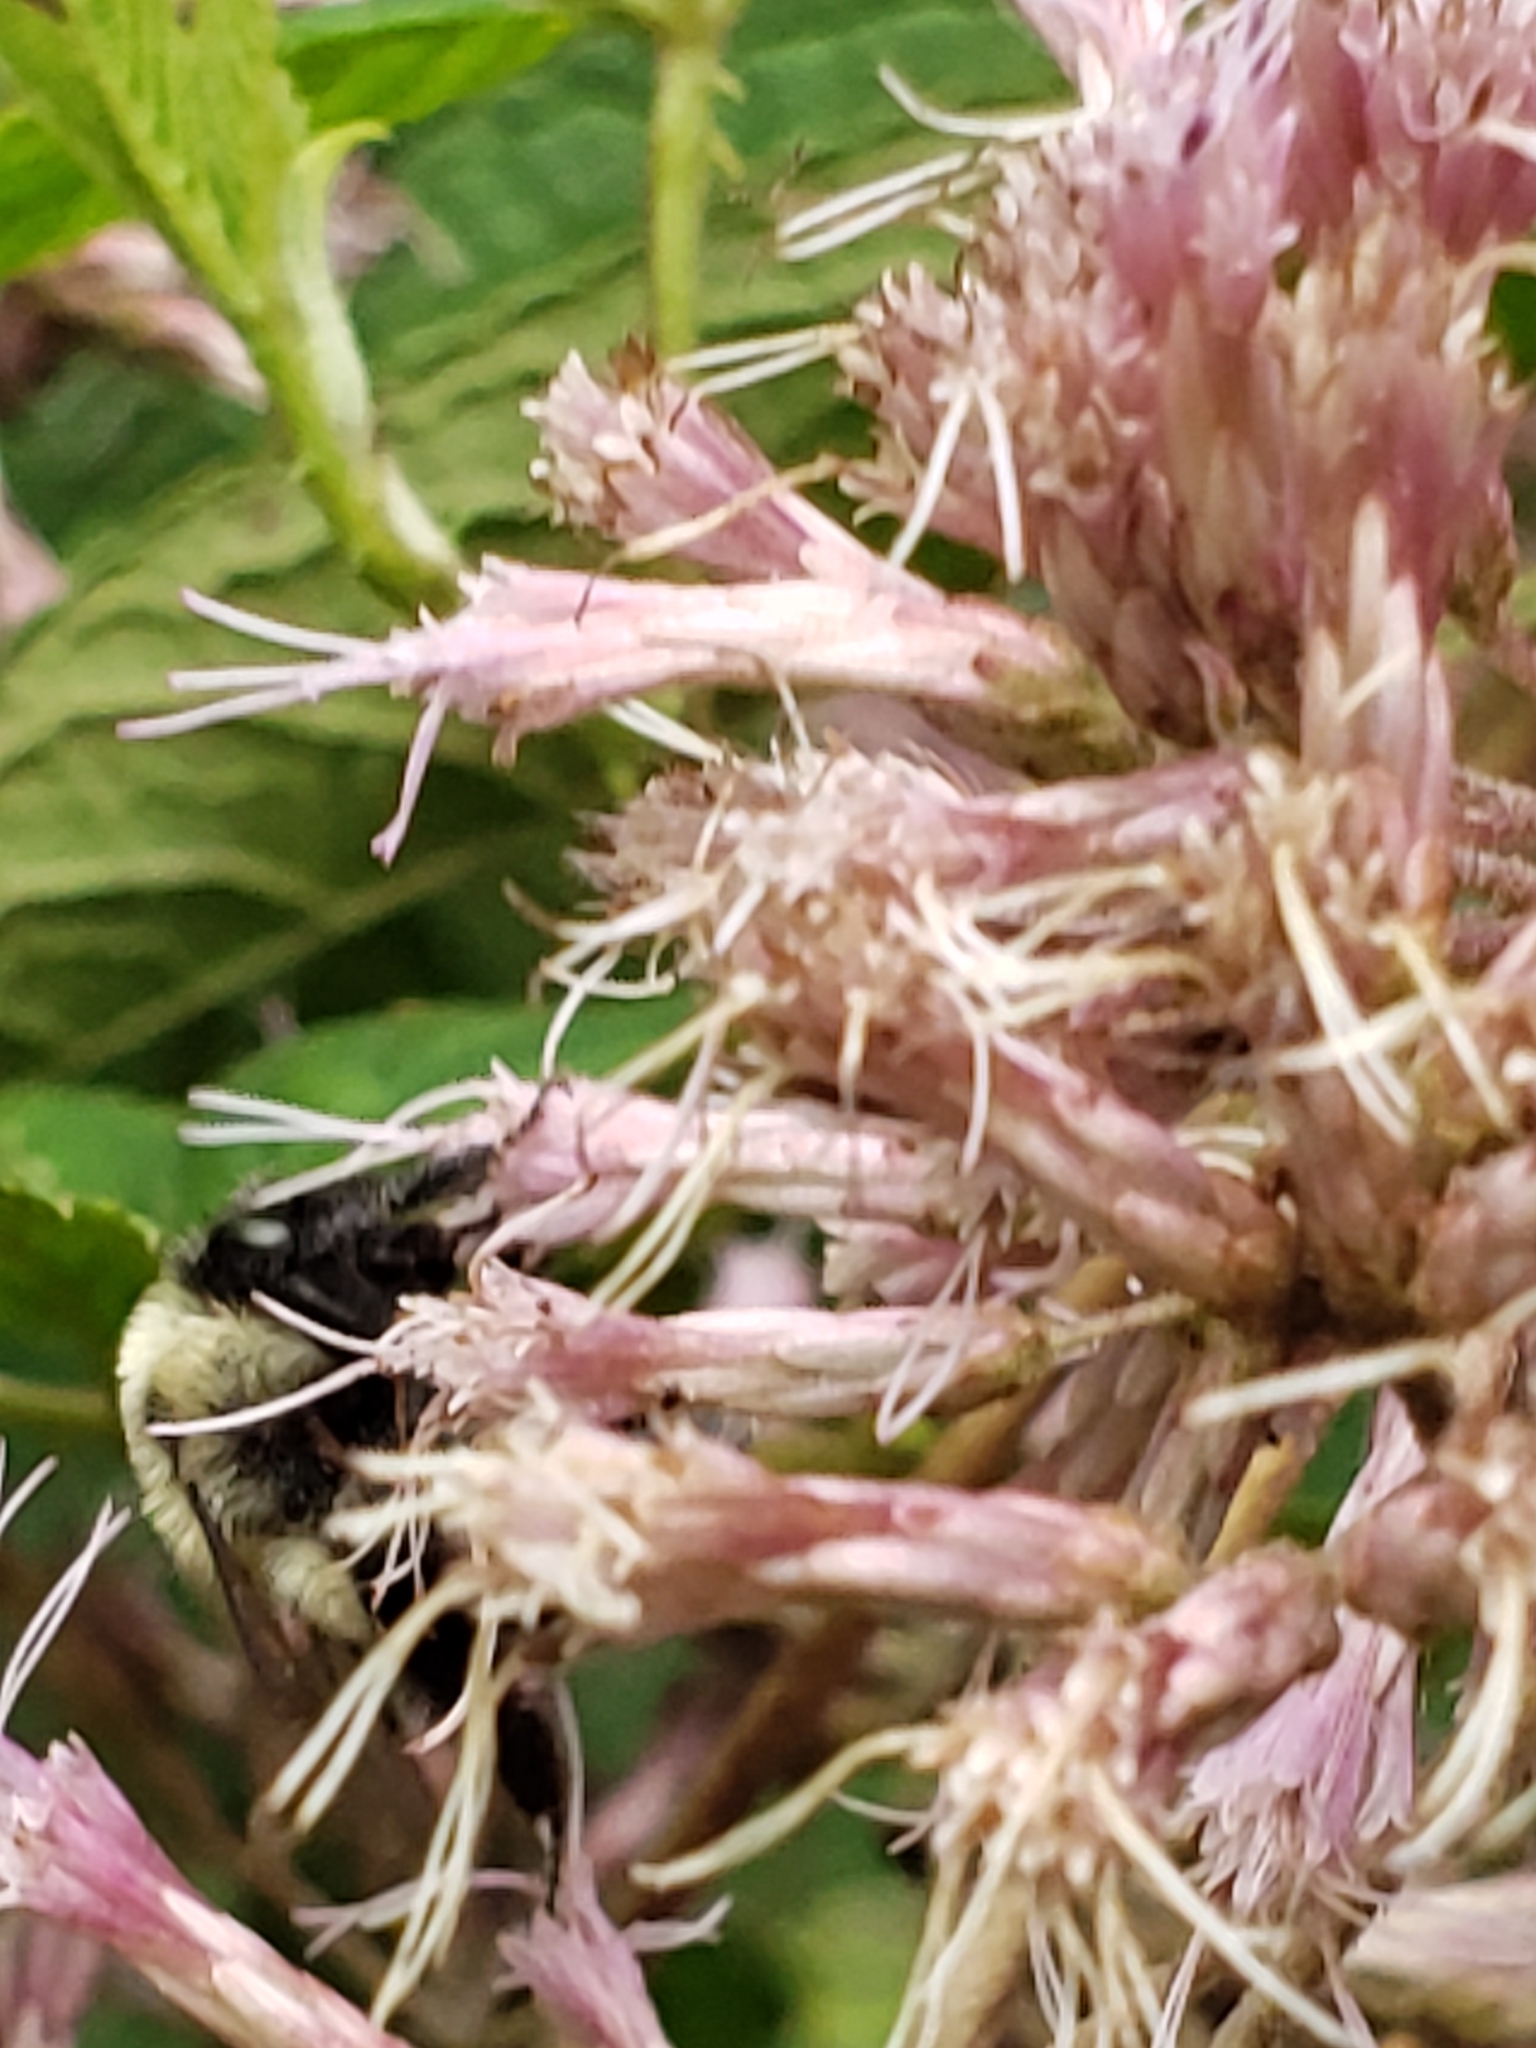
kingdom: Animalia
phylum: Arthropoda
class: Insecta
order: Hymenoptera
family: Apidae
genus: Bombus
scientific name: Bombus impatiens
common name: Common eastern bumble bee
